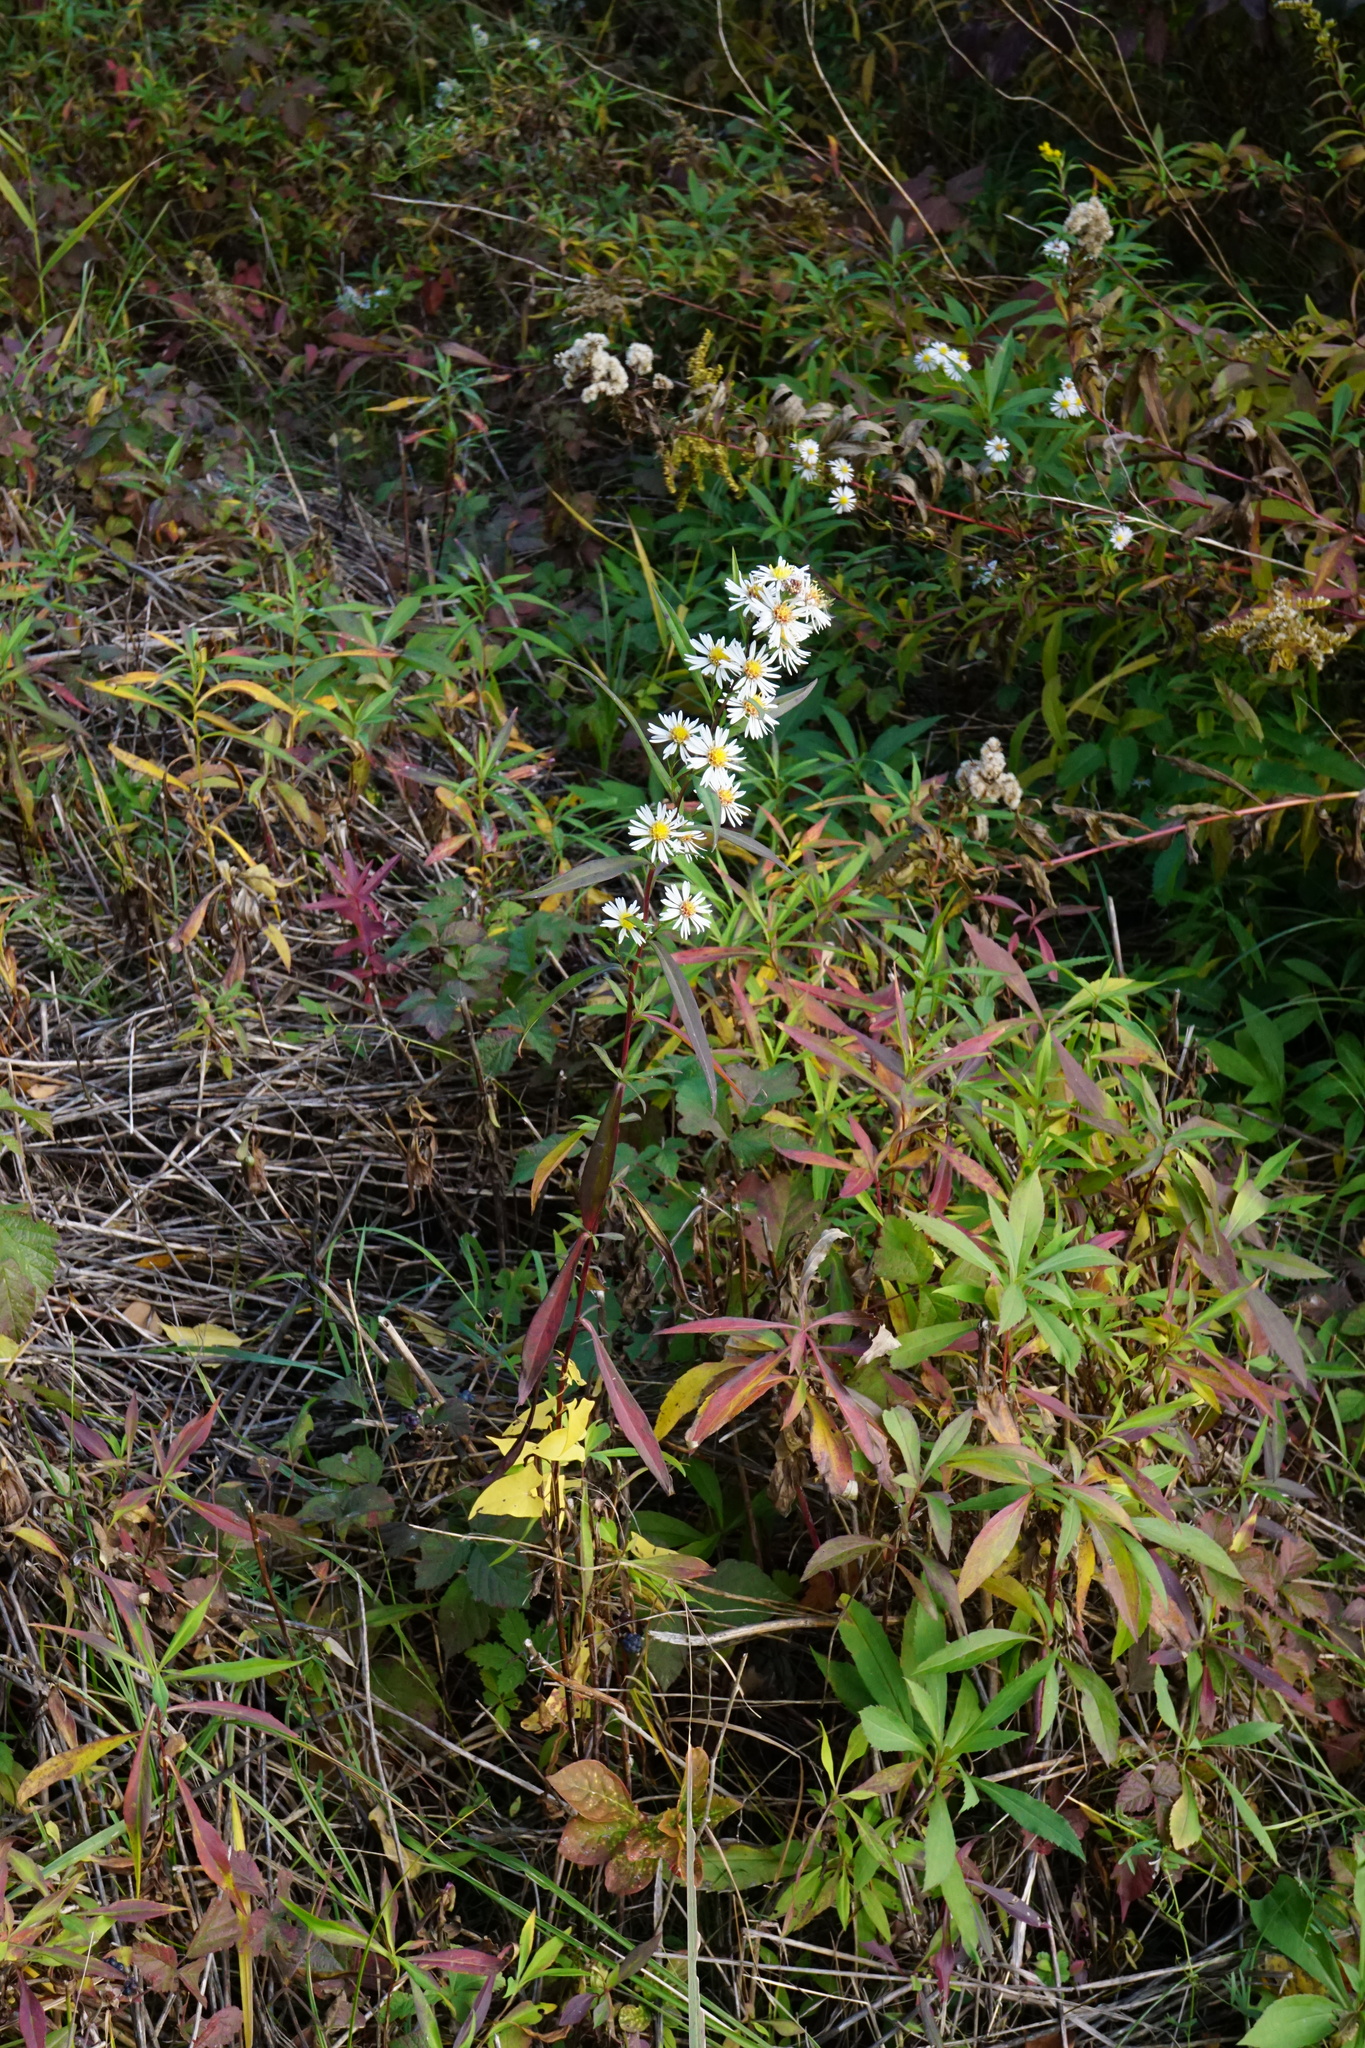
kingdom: Plantae
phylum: Tracheophyta
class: Magnoliopsida
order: Asterales
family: Asteraceae
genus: Symphyotrichum
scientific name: Symphyotrichum lanceolatum
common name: Panicled aster
